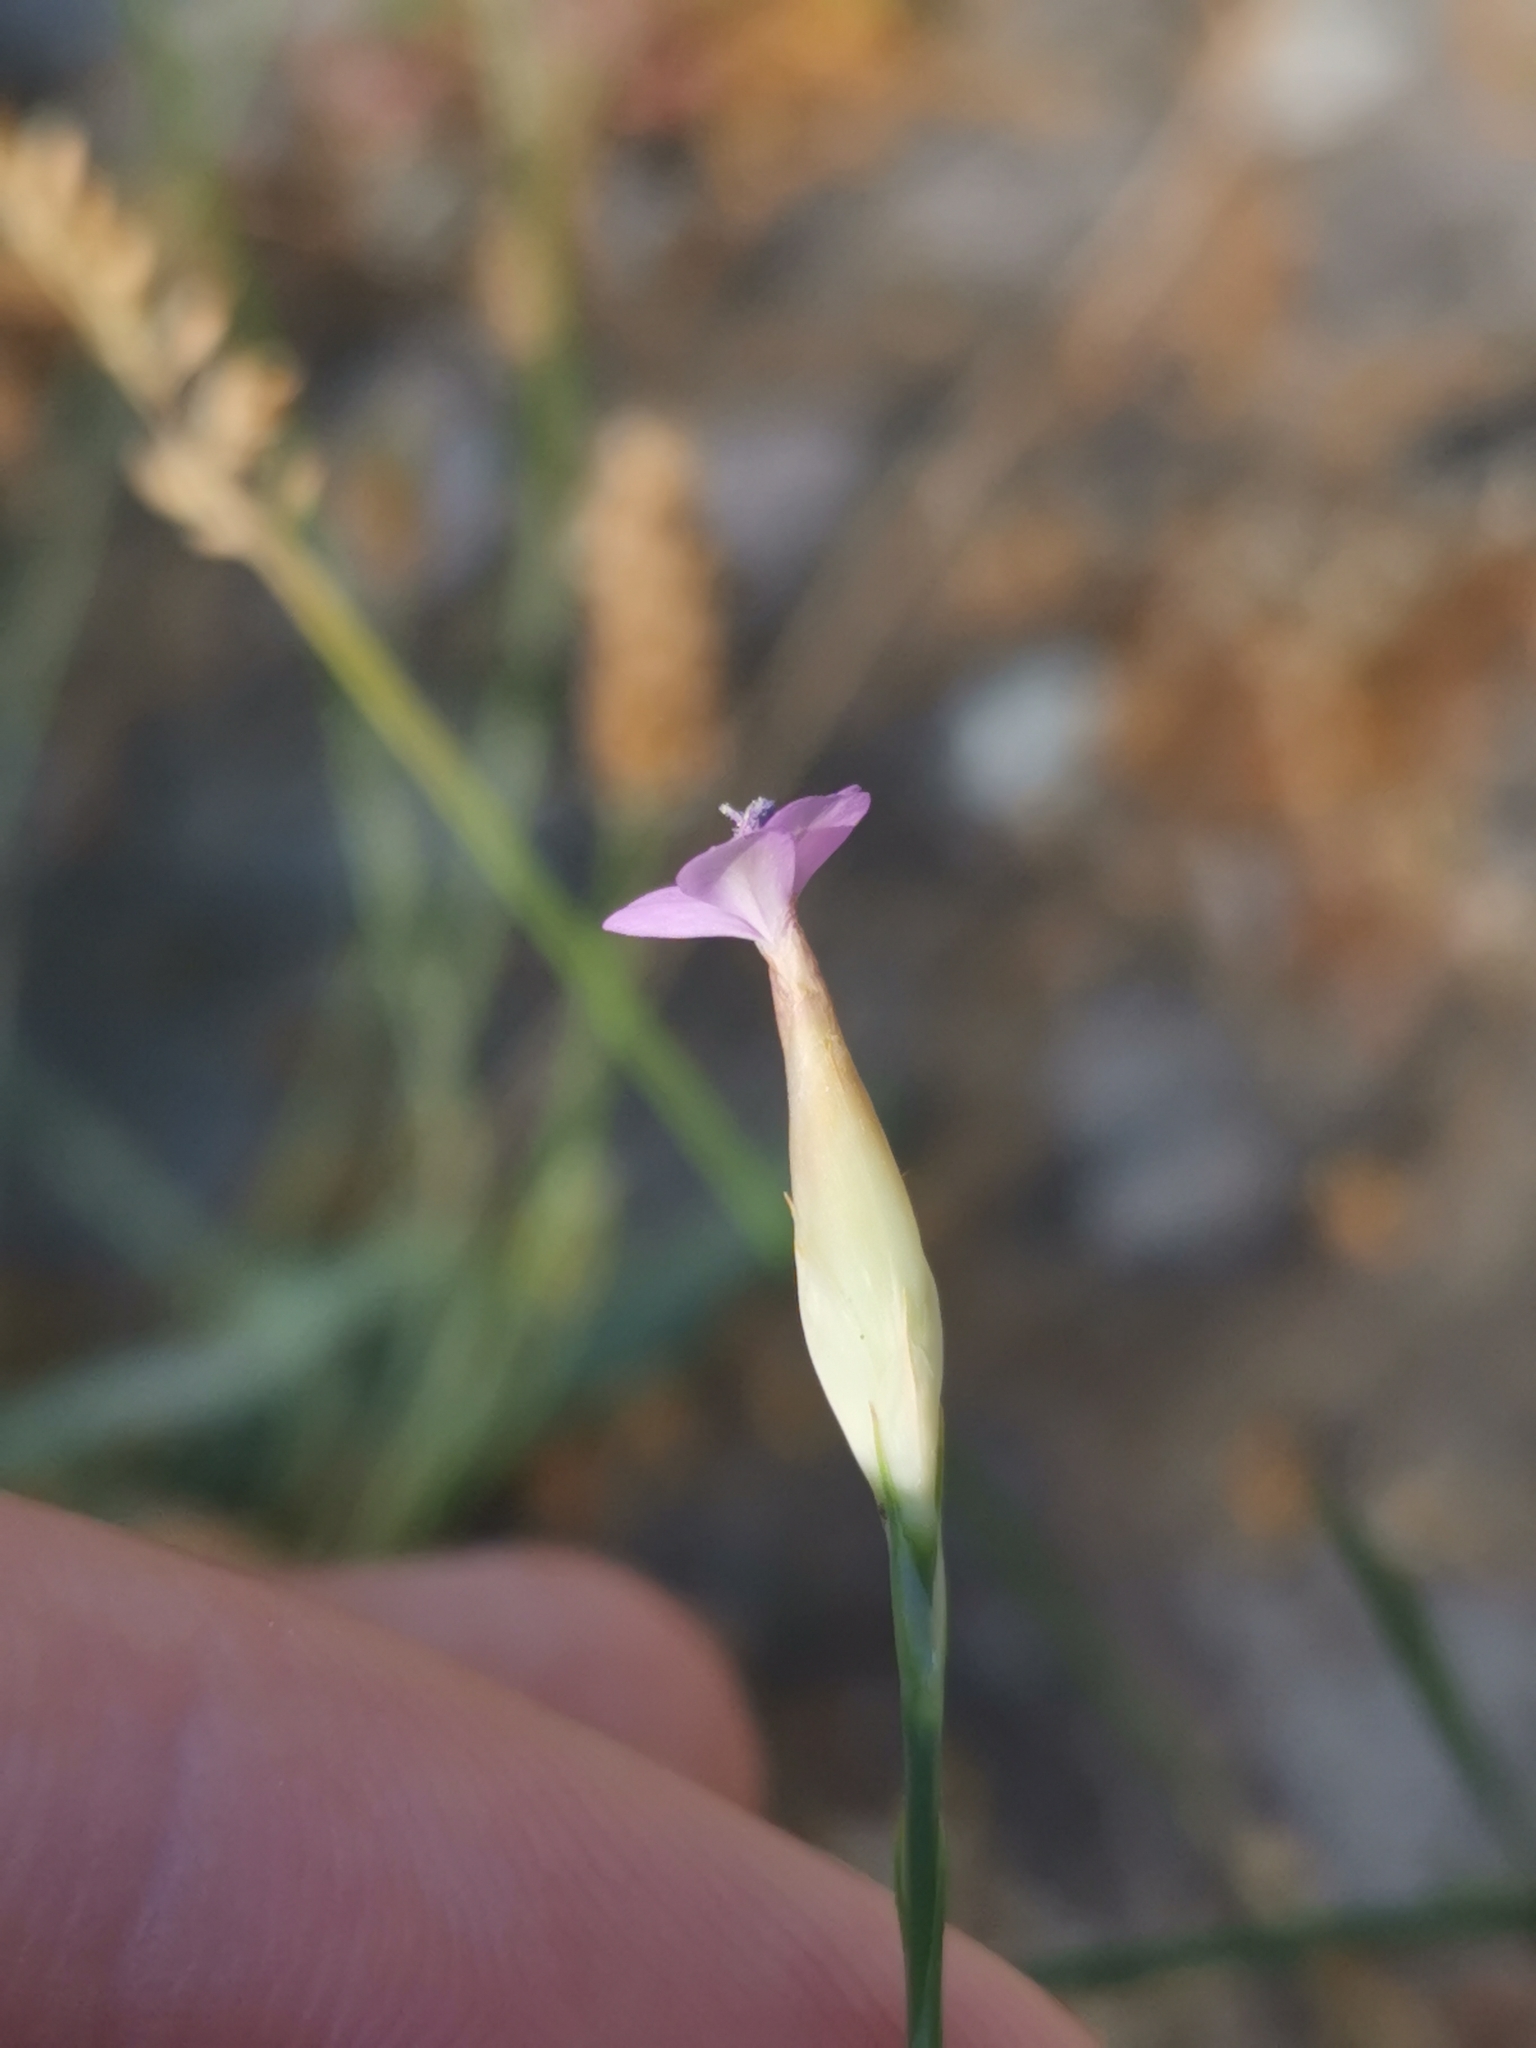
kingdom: Plantae
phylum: Tracheophyta
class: Magnoliopsida
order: Caryophyllales
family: Caryophyllaceae
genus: Petrorhagia
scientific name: Petrorhagia prolifera
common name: Proliferous pink
